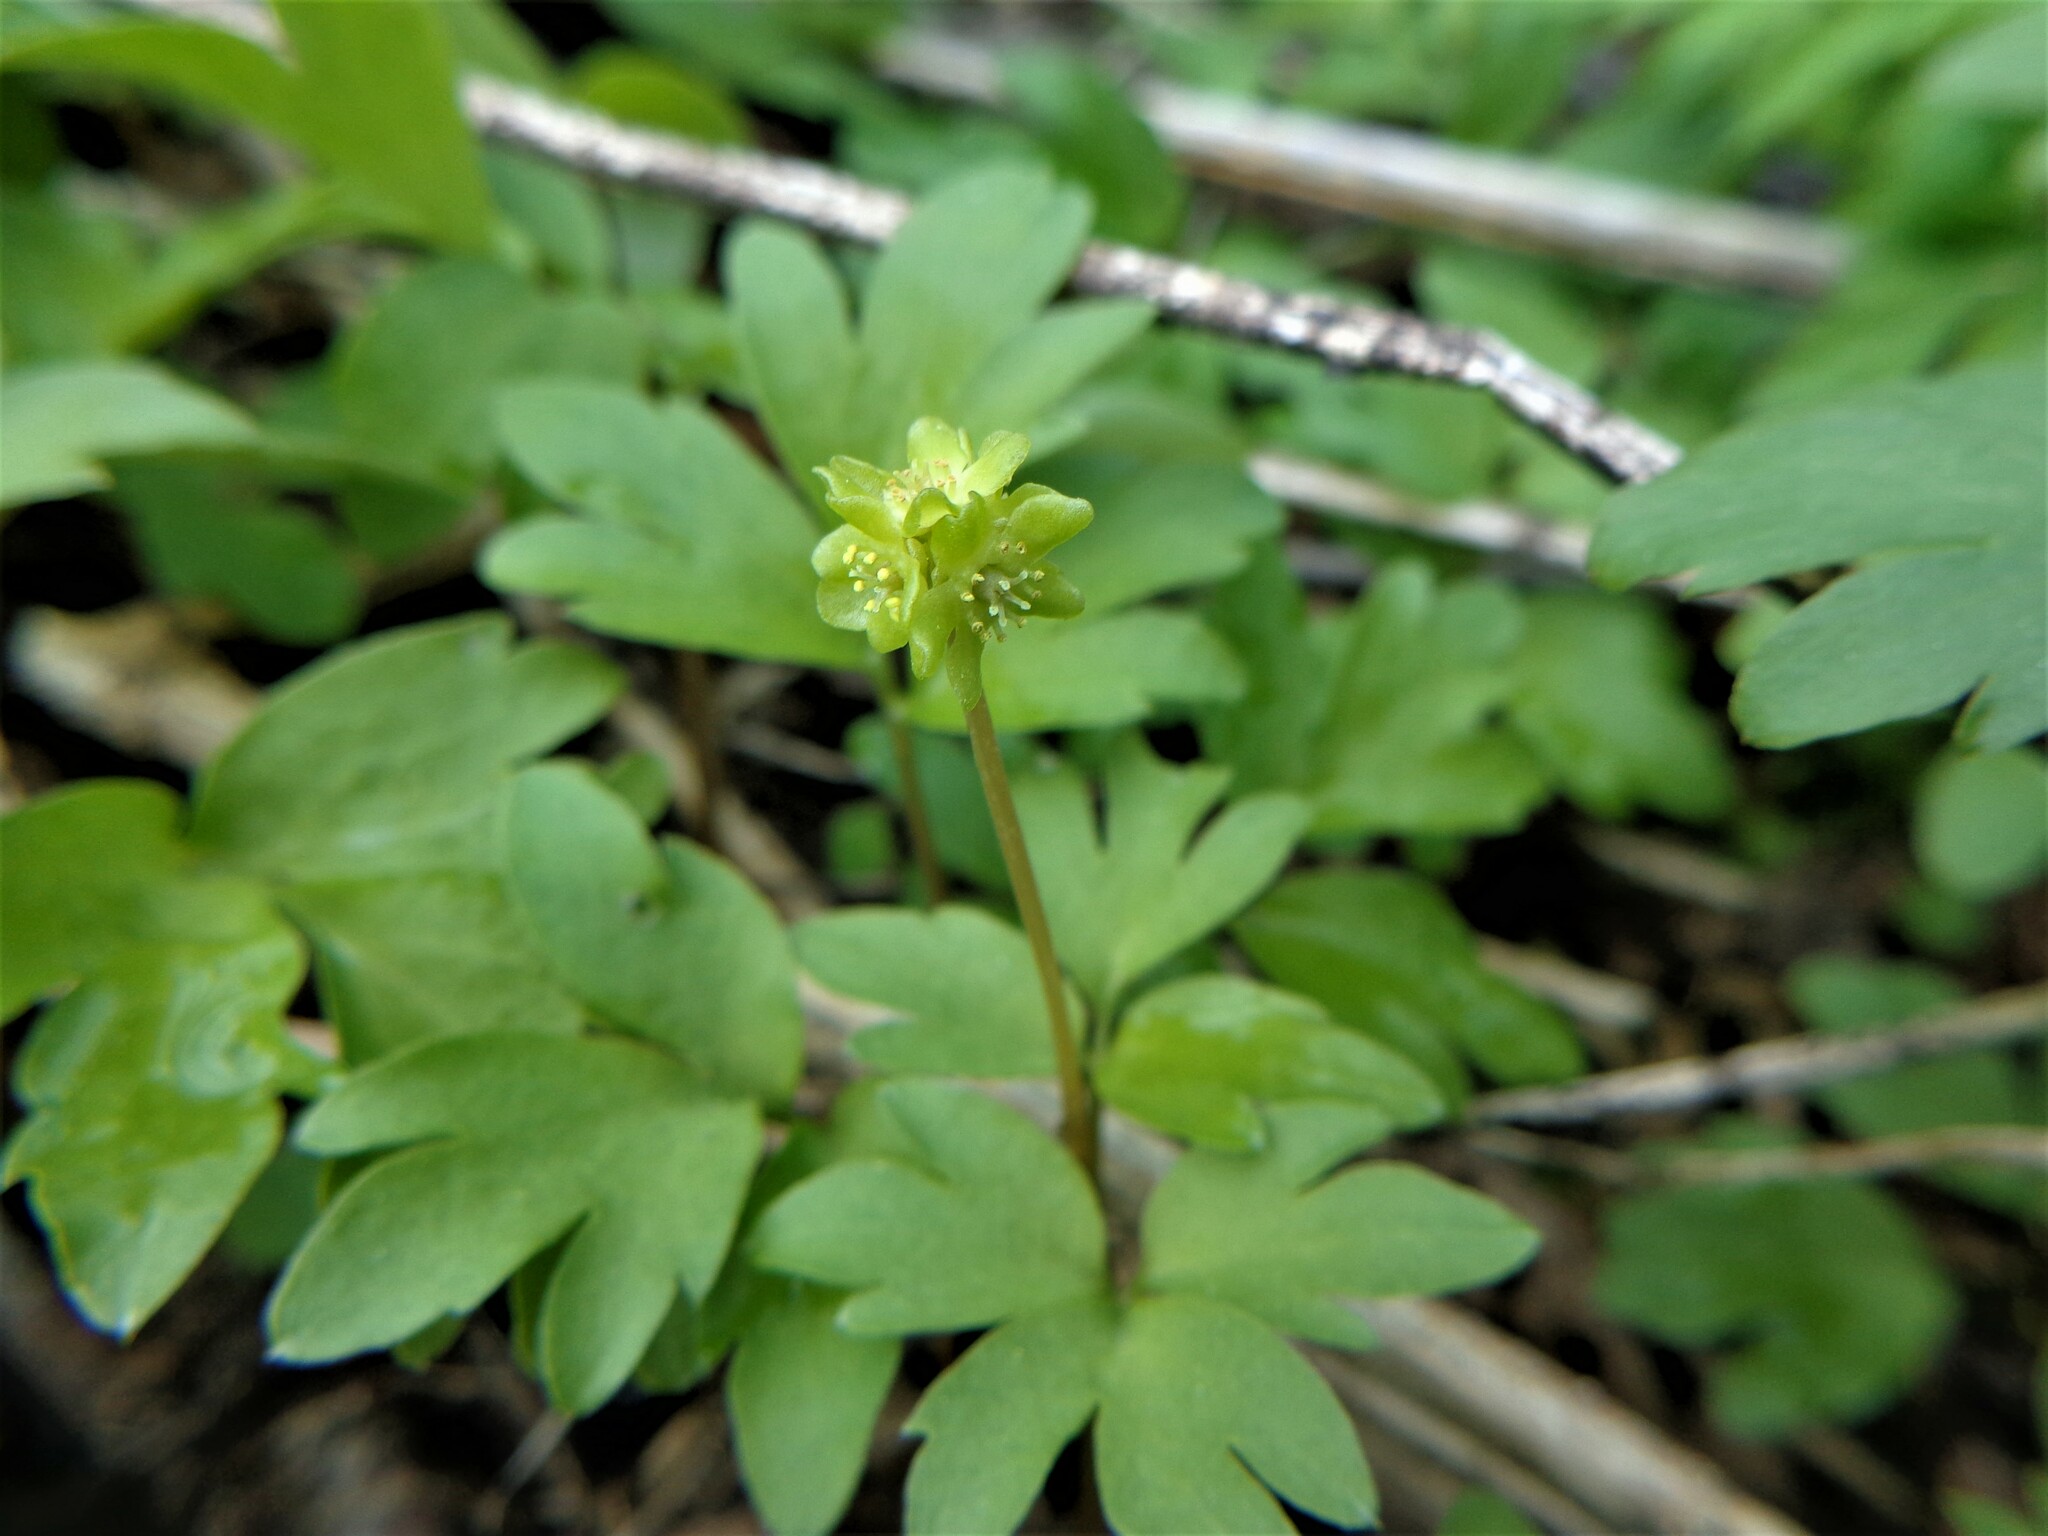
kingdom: Plantae
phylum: Tracheophyta
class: Magnoliopsida
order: Dipsacales
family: Viburnaceae
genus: Adoxa
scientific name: Adoxa moschatellina
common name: Moschatel
